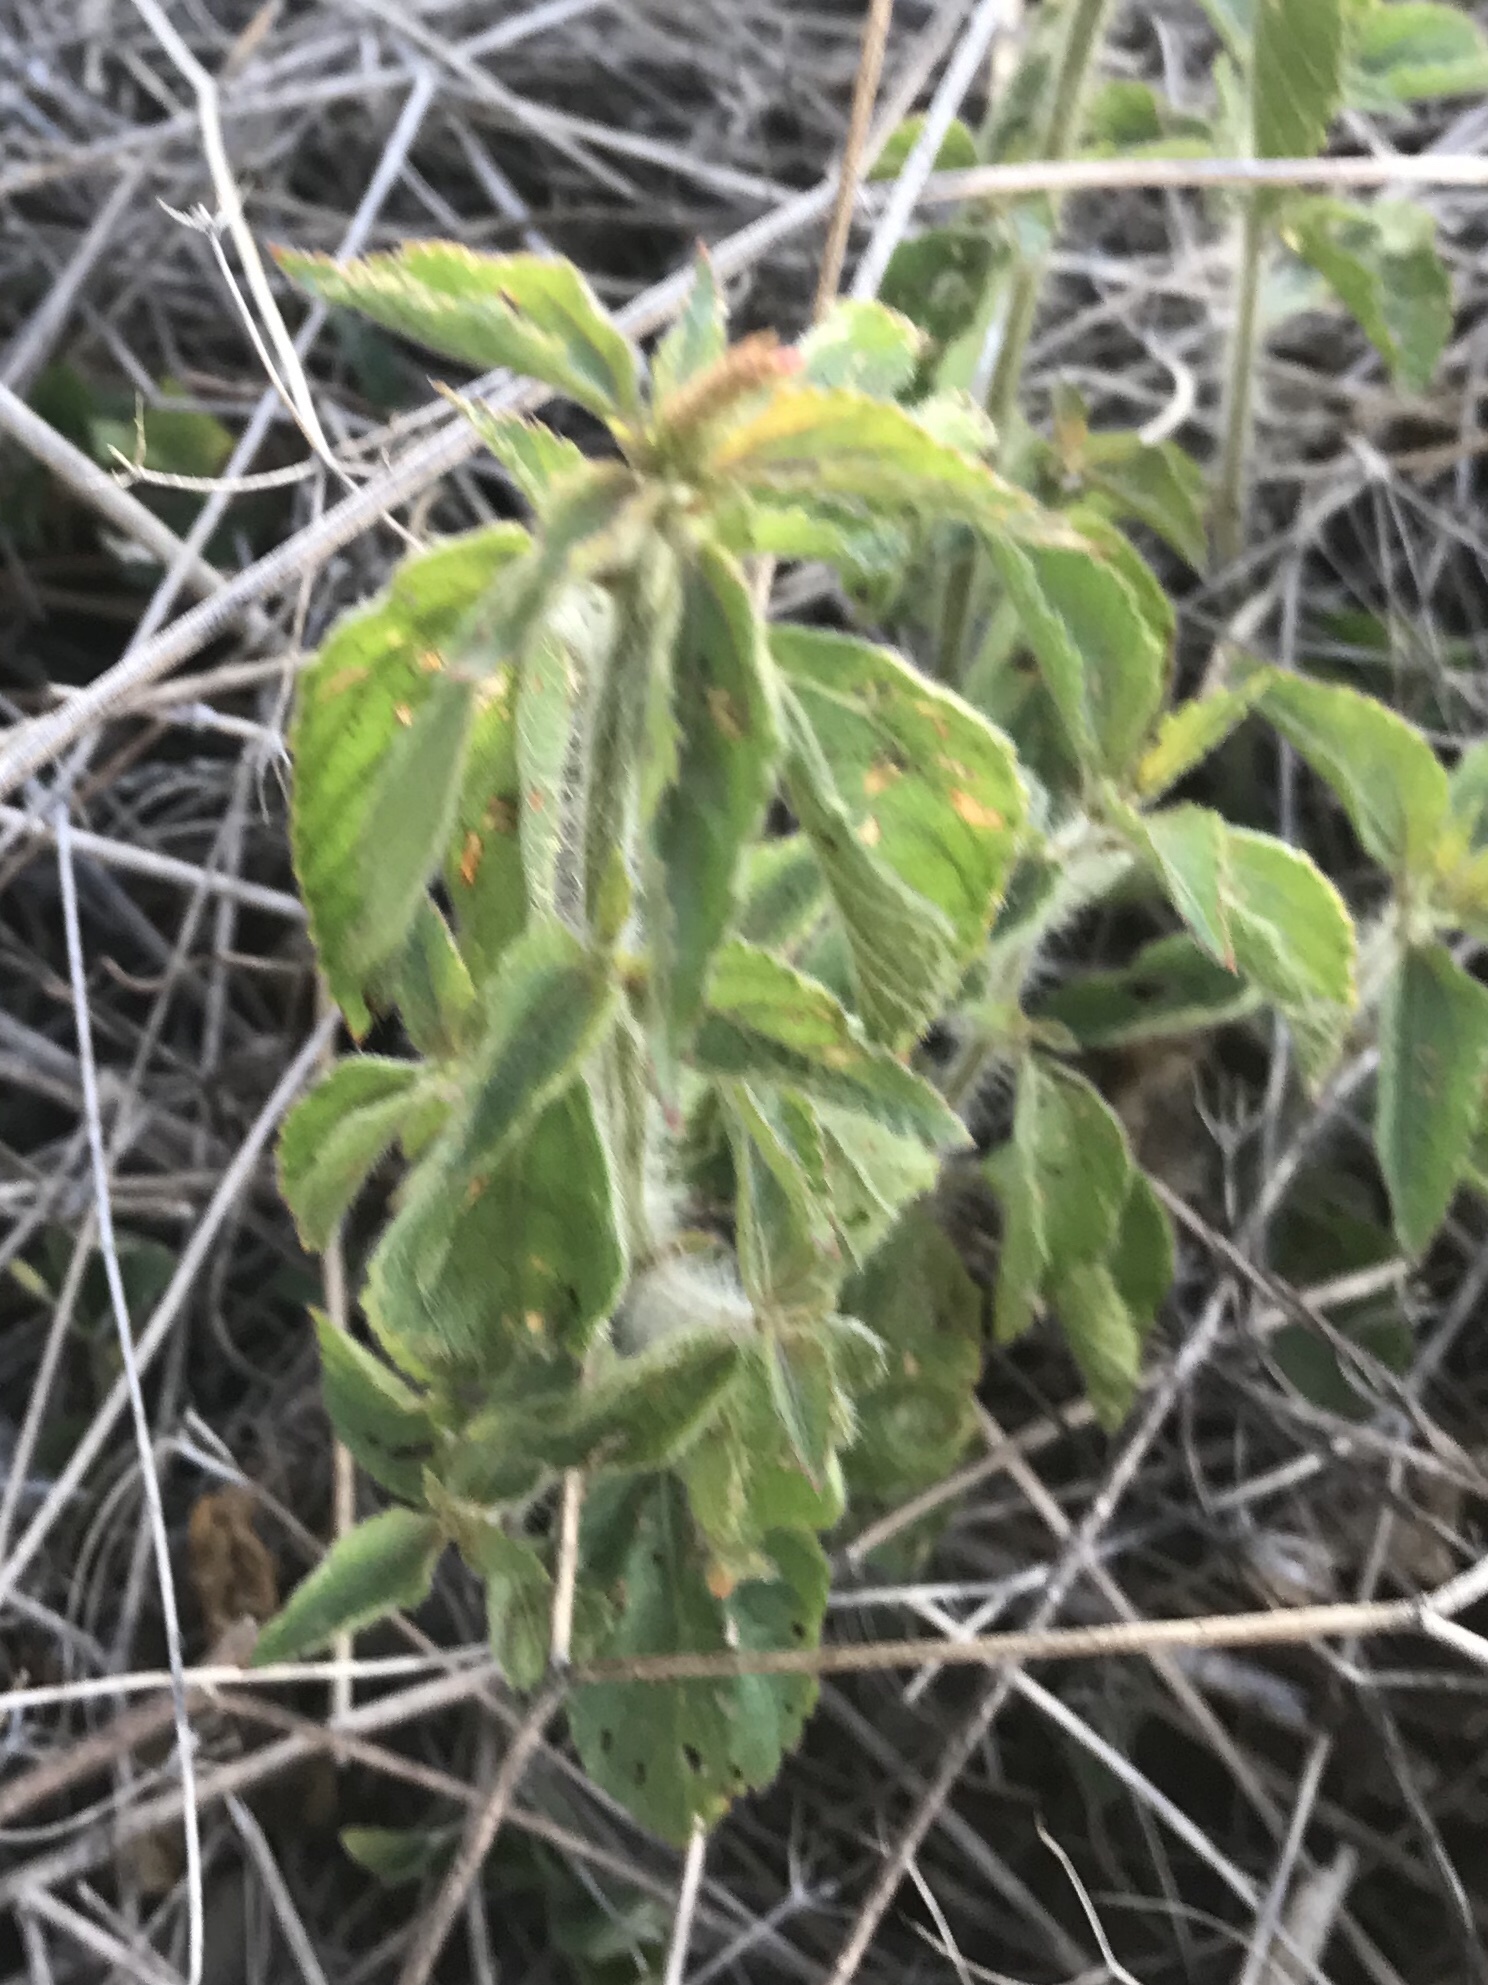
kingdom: Plantae
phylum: Tracheophyta
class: Magnoliopsida
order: Malpighiales
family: Euphorbiaceae
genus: Acalypha
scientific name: Acalypha phleoides
